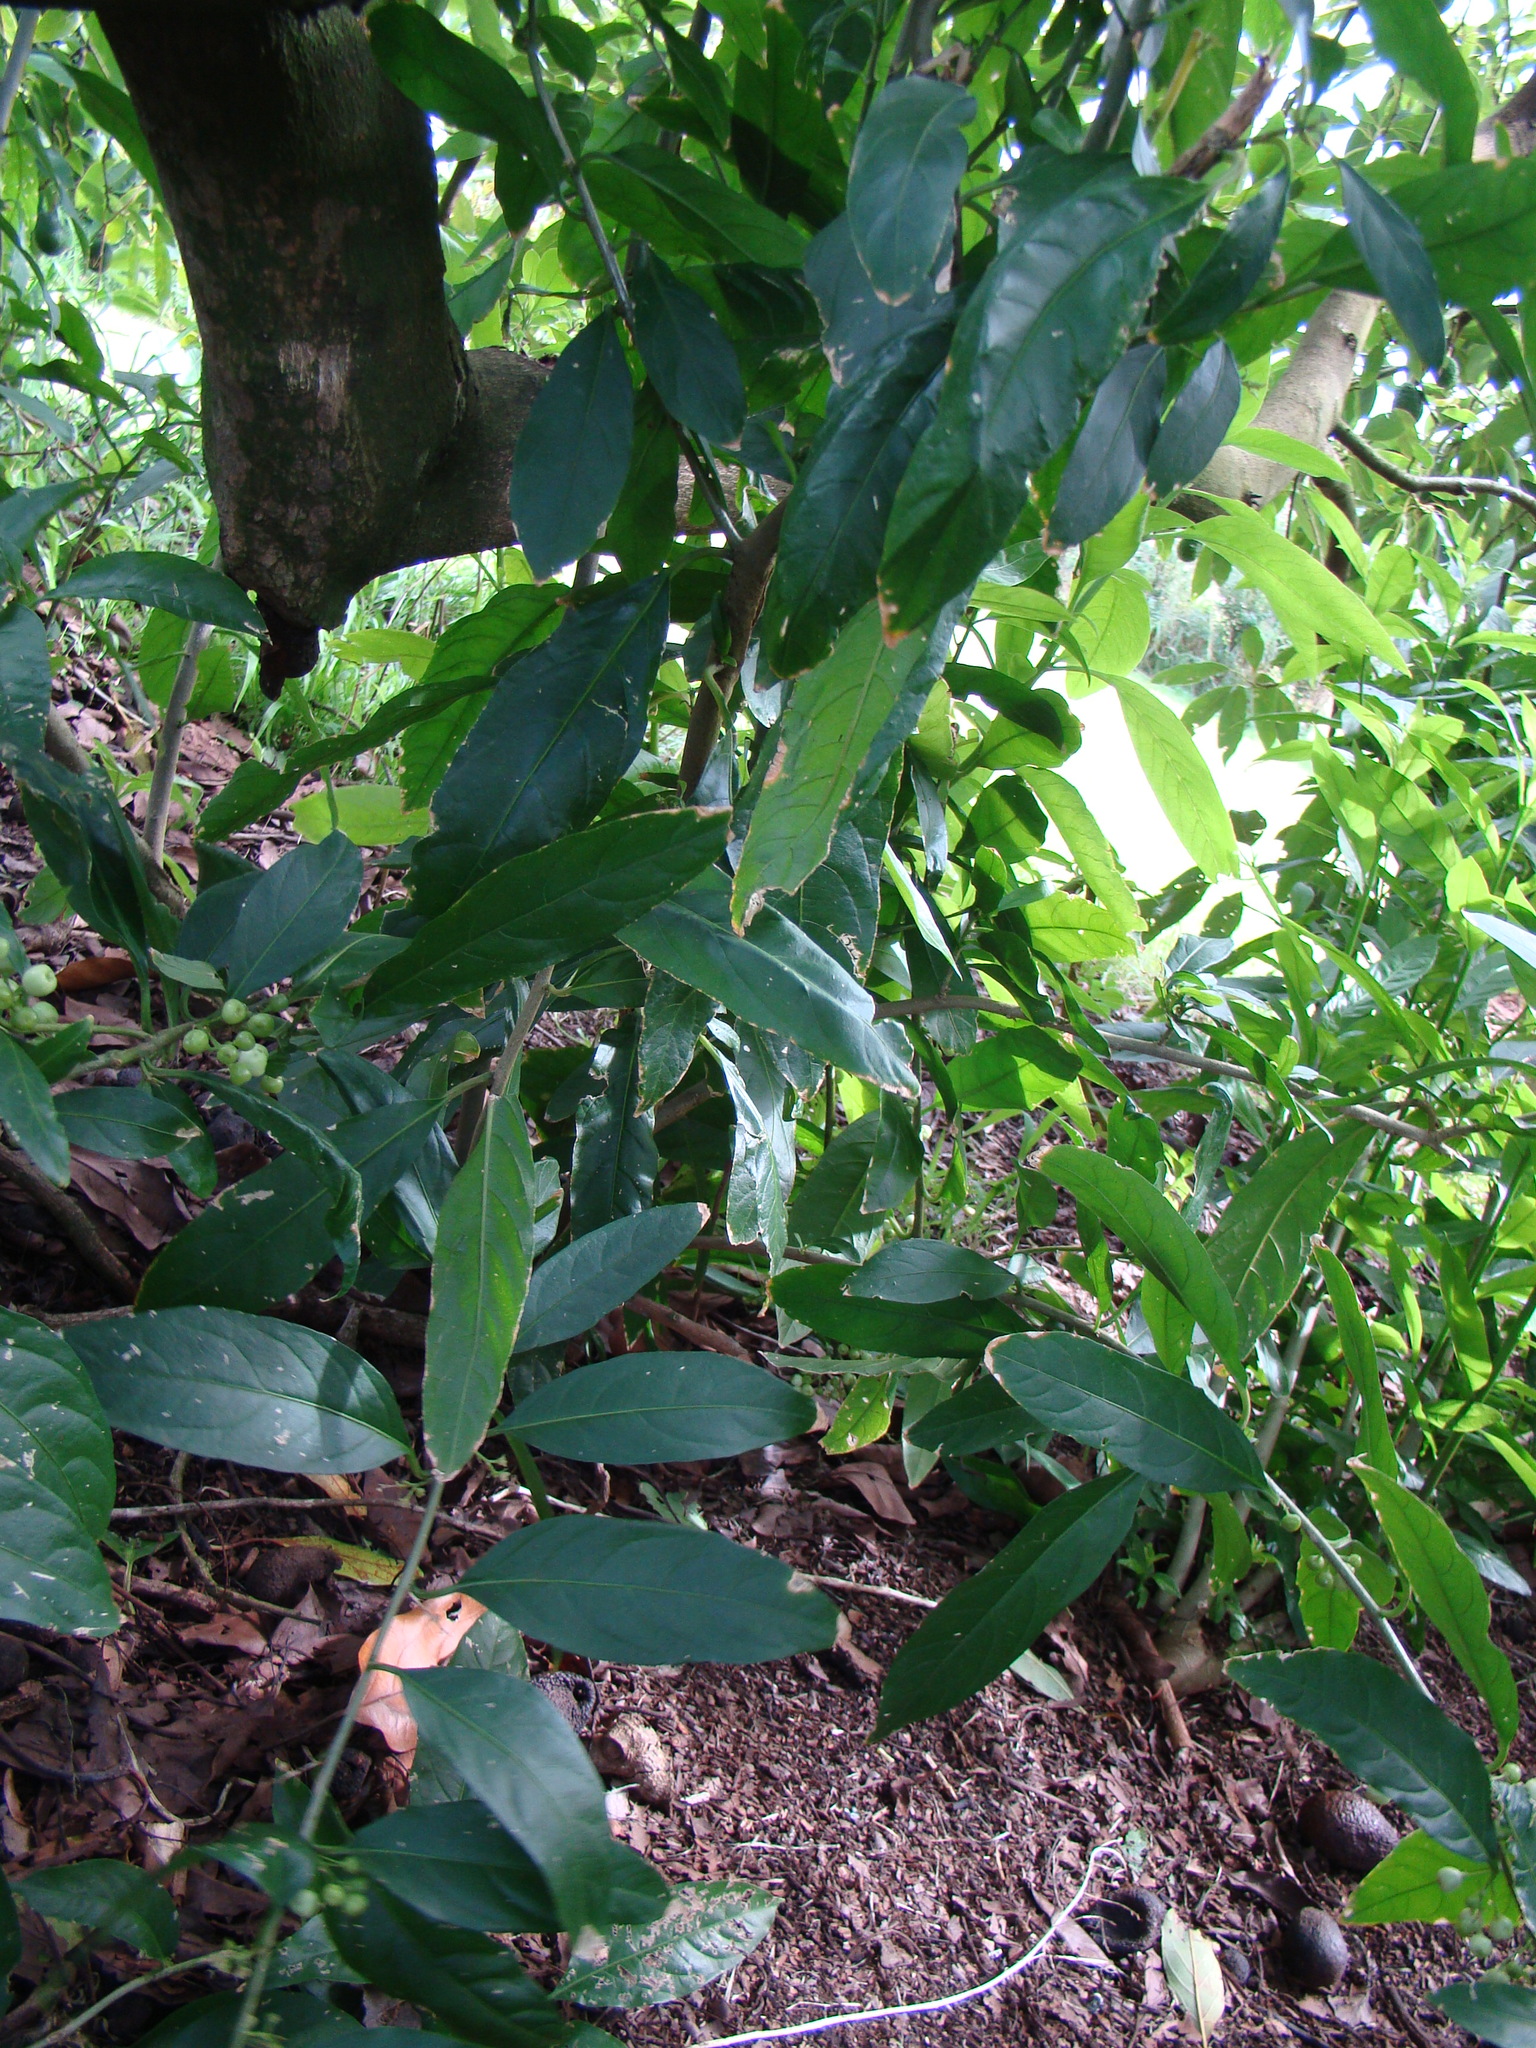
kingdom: Plantae
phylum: Tracheophyta
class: Magnoliopsida
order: Solanales
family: Solanaceae
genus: Cestrum
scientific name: Cestrum nocturnum
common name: Night jessamine
